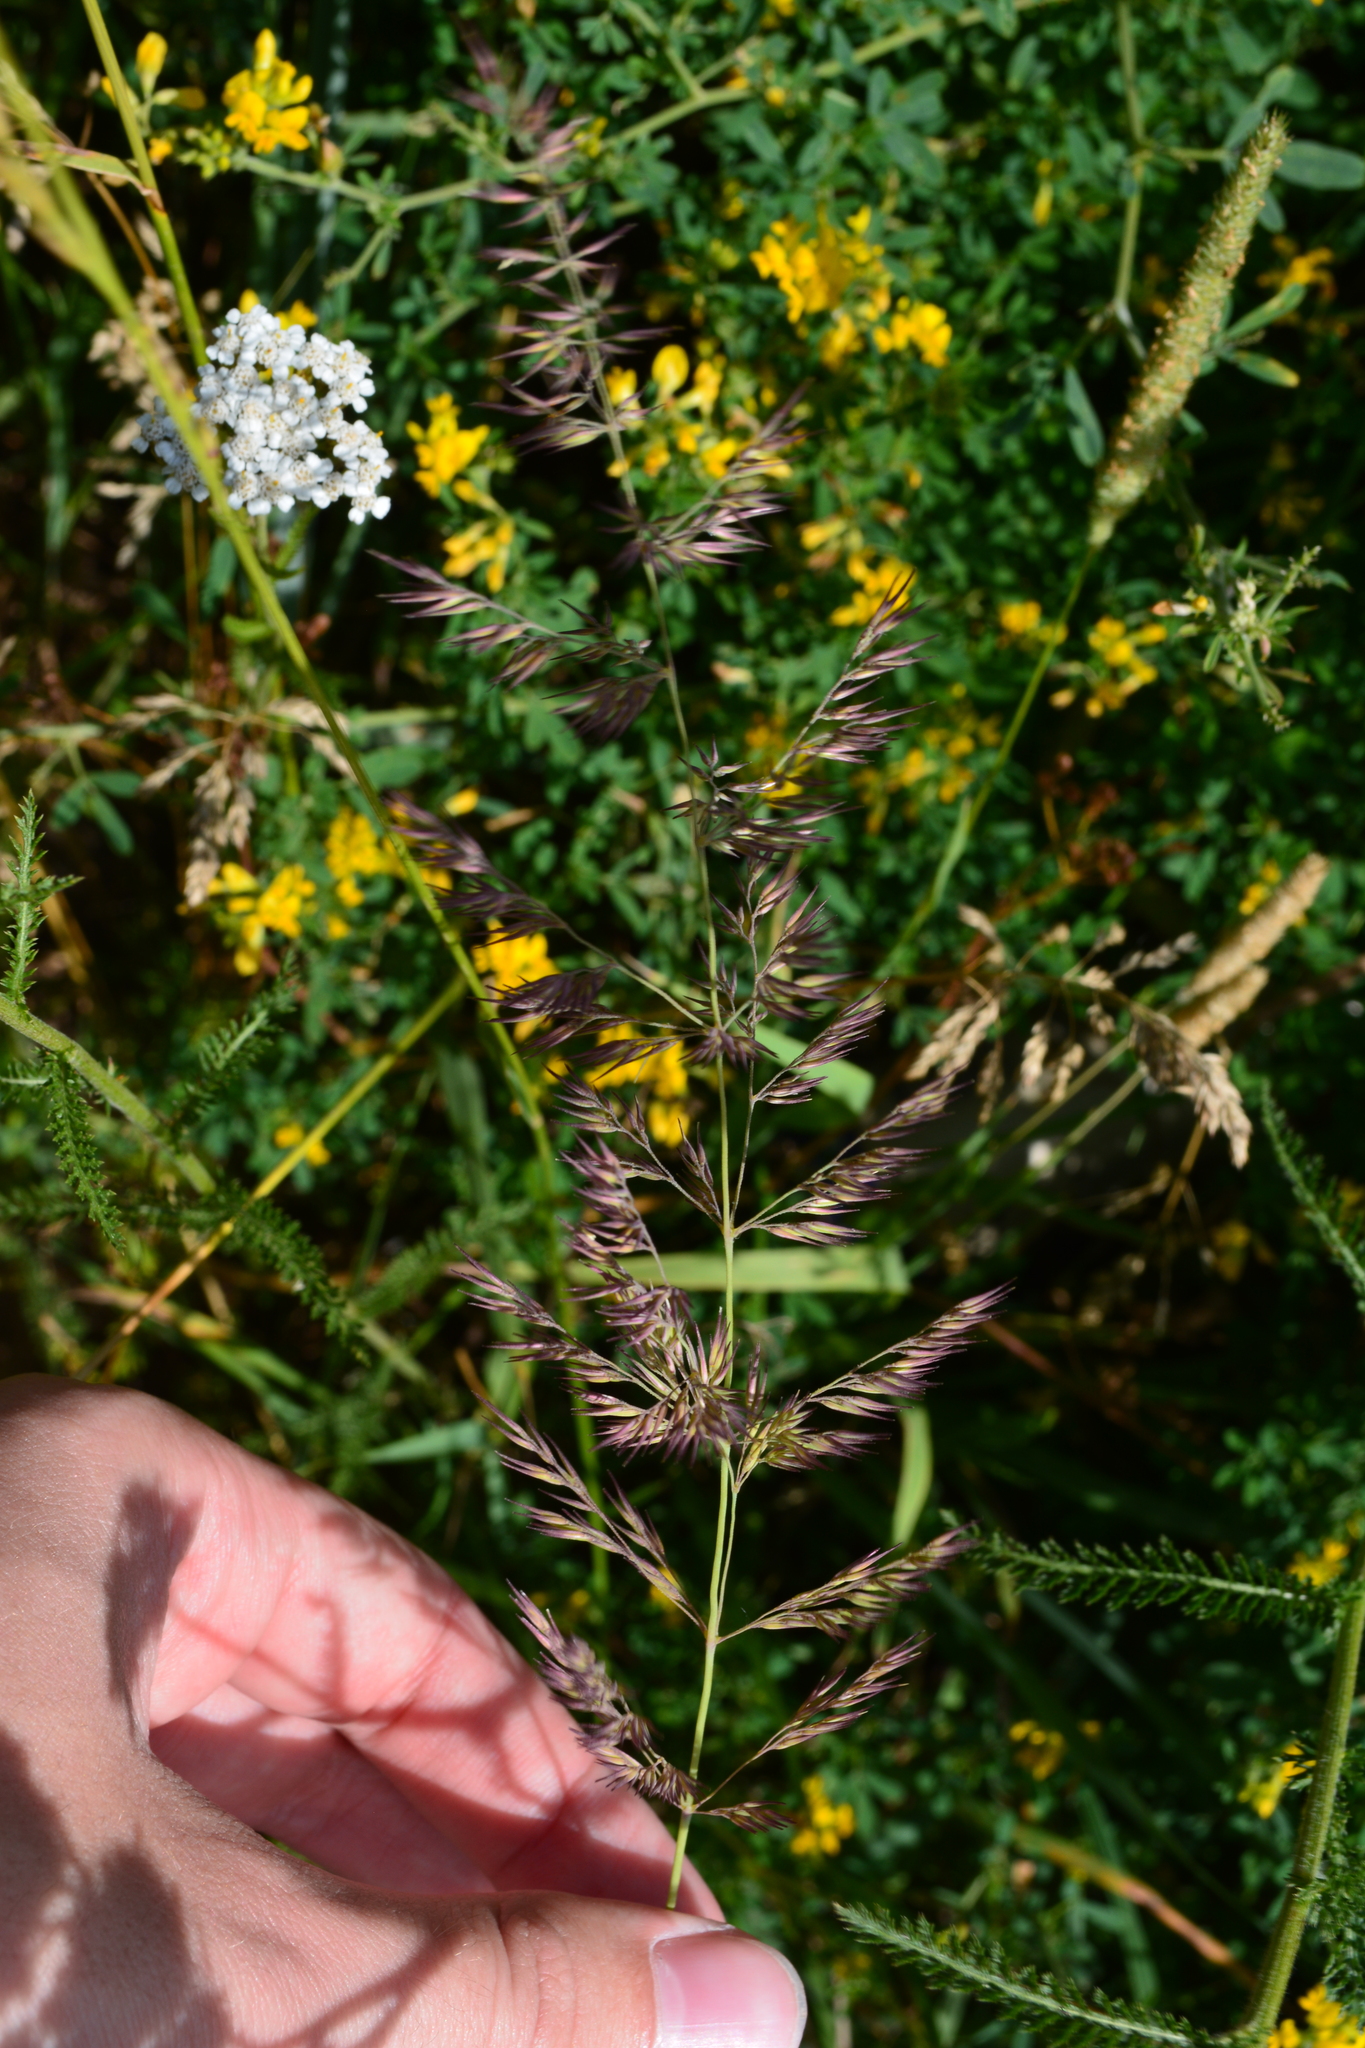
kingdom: Plantae
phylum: Tracheophyta
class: Liliopsida
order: Poales
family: Poaceae
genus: Calamagrostis
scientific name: Calamagrostis epigejos
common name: Wood small-reed
